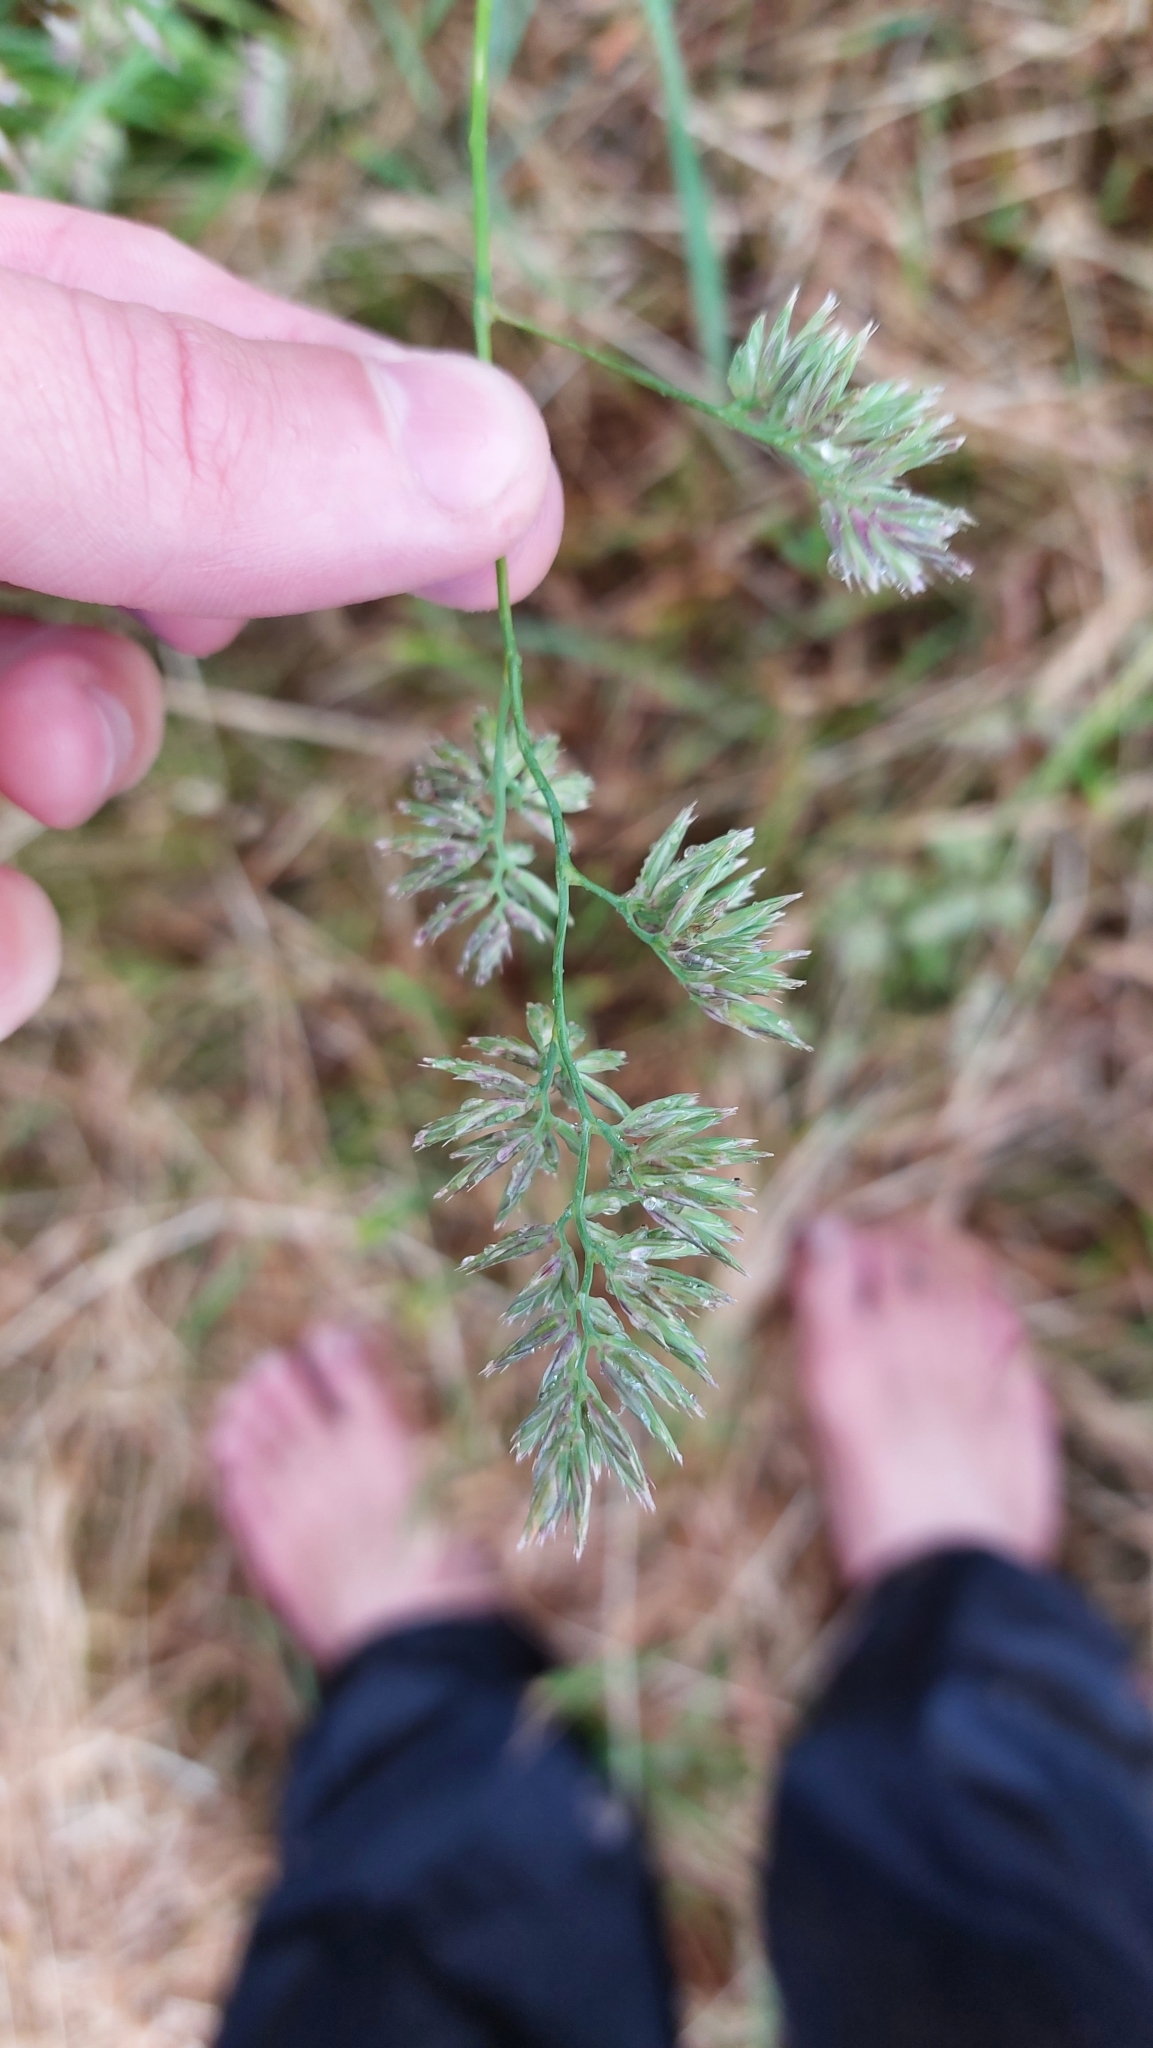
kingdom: Plantae
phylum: Tracheophyta
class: Liliopsida
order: Poales
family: Poaceae
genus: Dactylis
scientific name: Dactylis glomerata
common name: Orchardgrass
